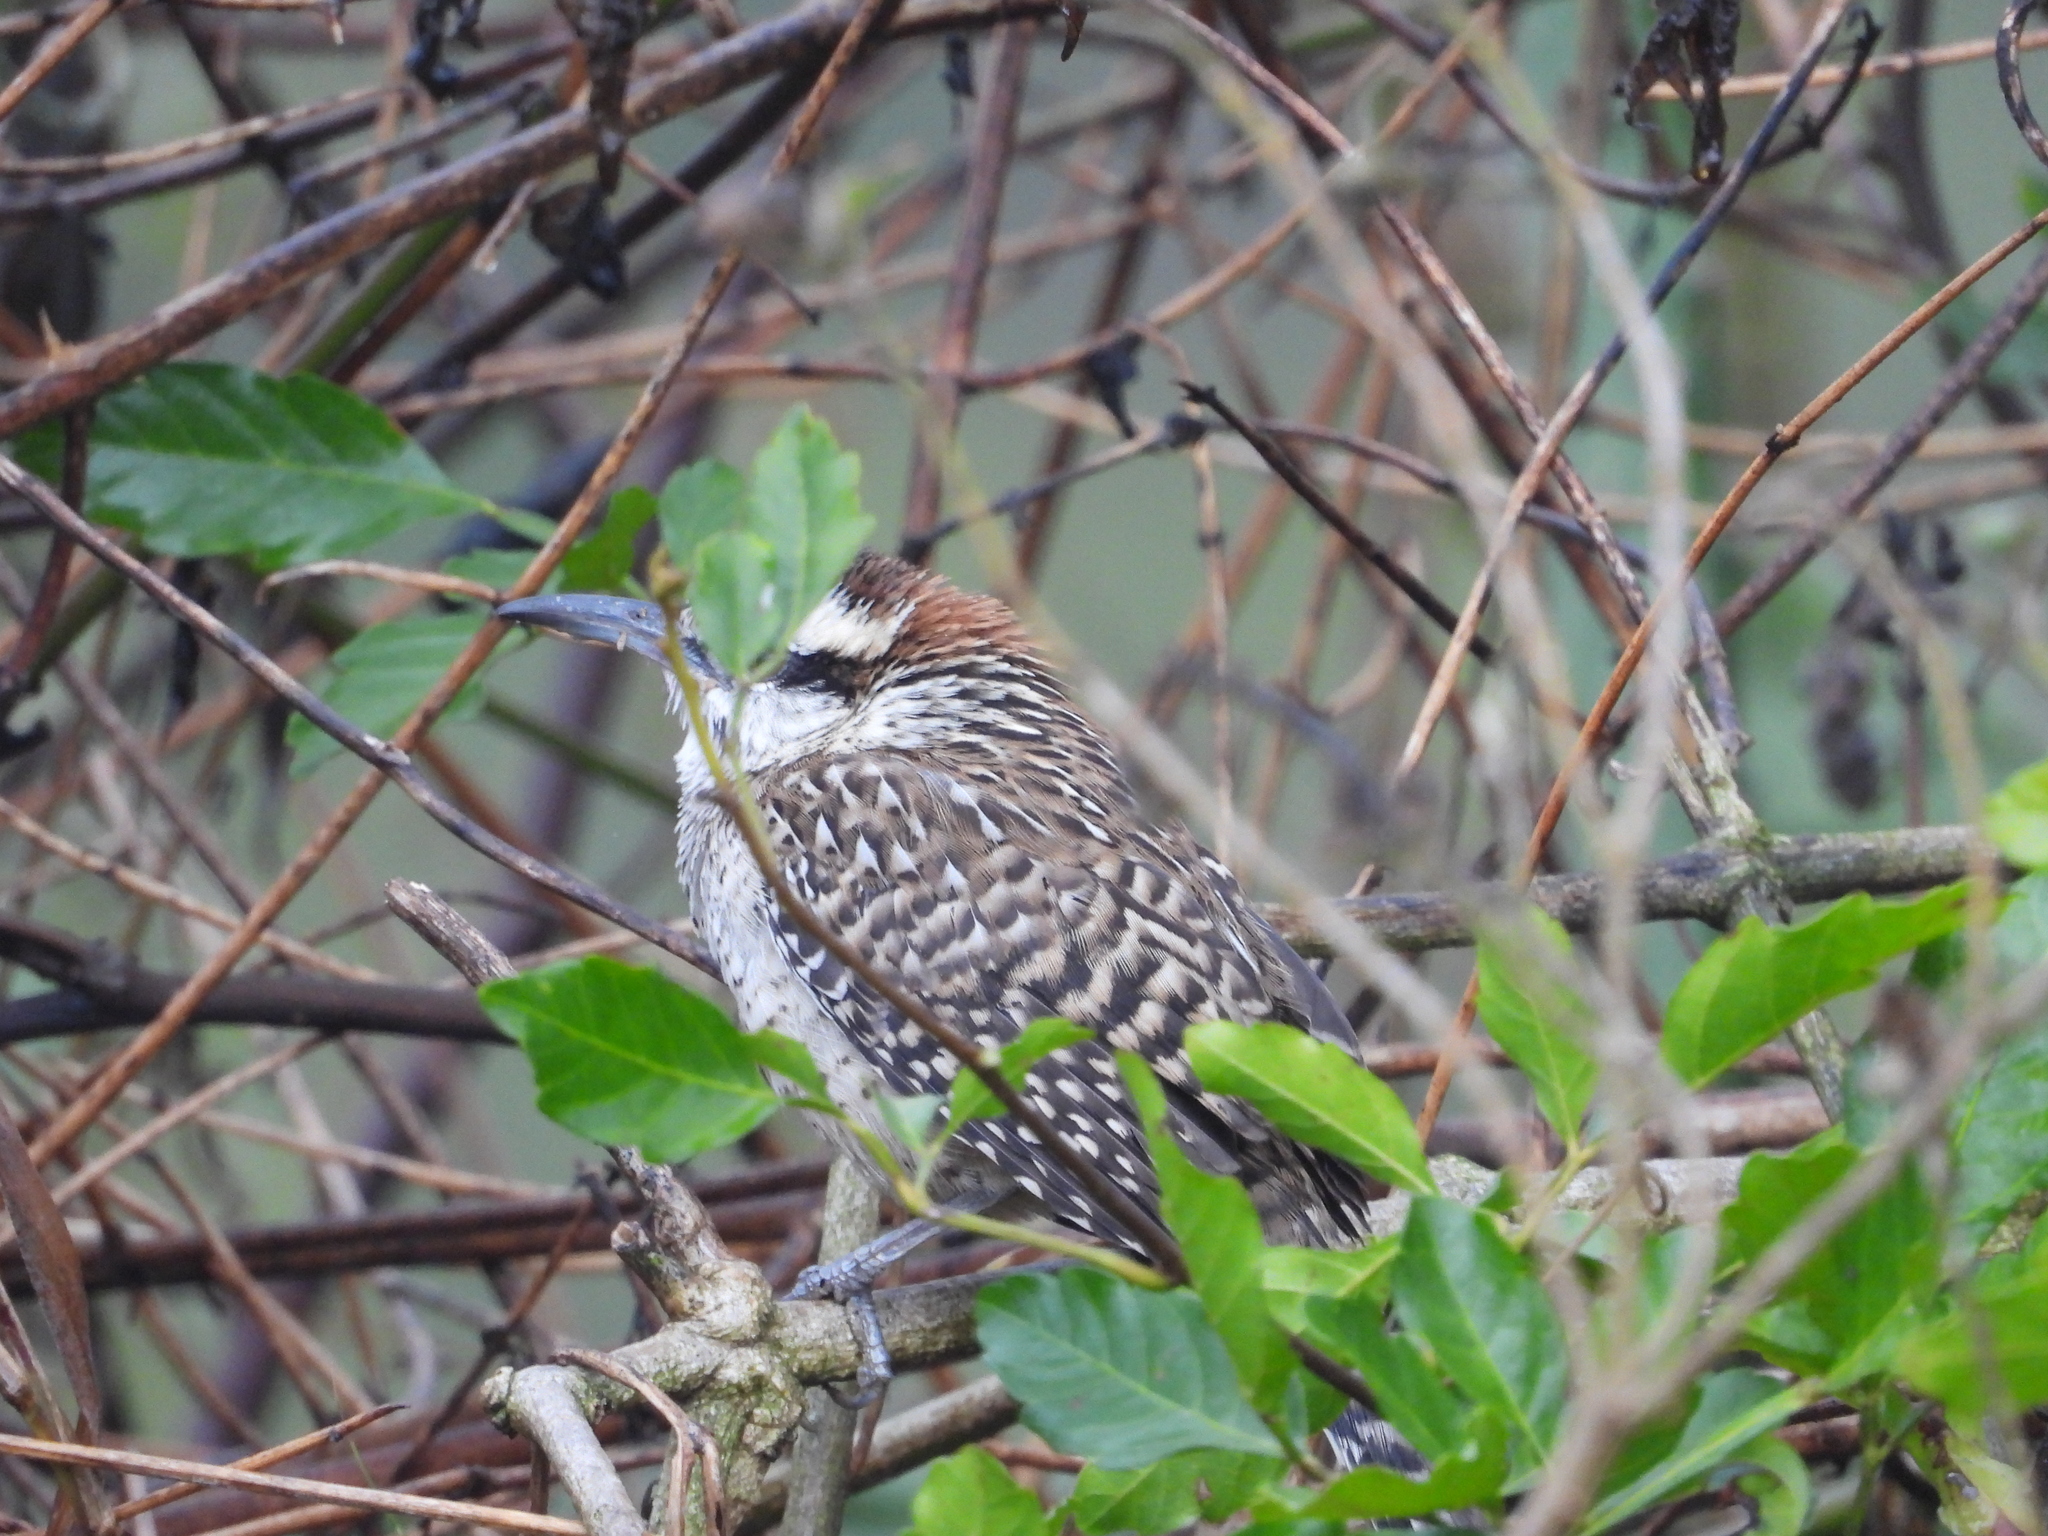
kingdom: Animalia
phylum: Chordata
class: Aves
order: Passeriformes
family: Troglodytidae
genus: Campylorhynchus
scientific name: Campylorhynchus rufinucha
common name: Rufous-naped wren
